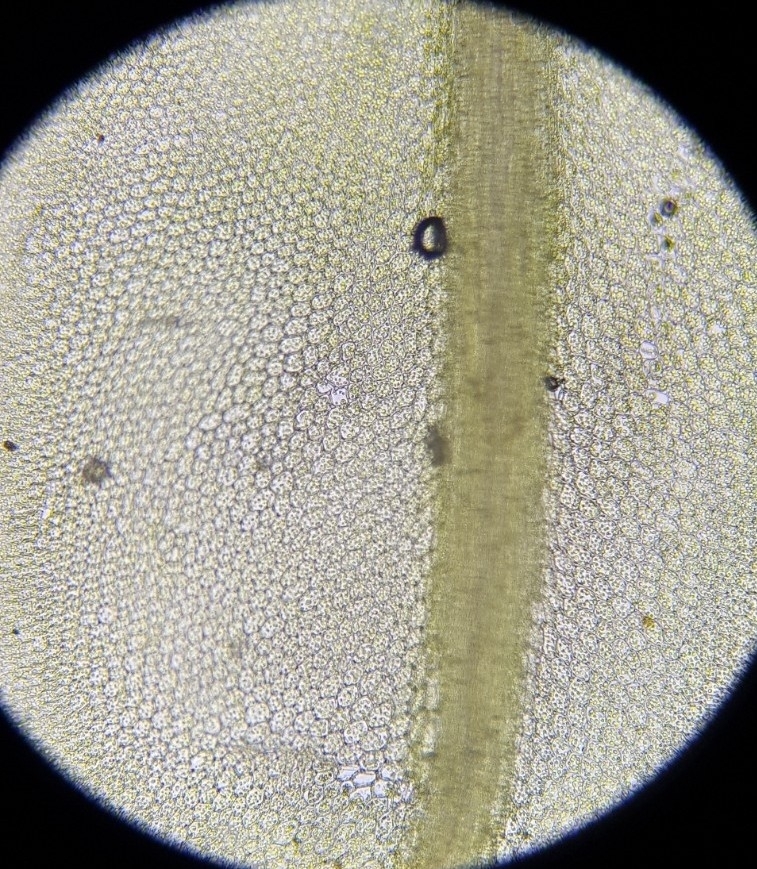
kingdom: Plantae
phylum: Bryophyta
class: Bryopsida
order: Bryales
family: Mniaceae
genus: Plagiomnium
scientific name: Plagiomnium affine
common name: Many-fruited thyme-moss
